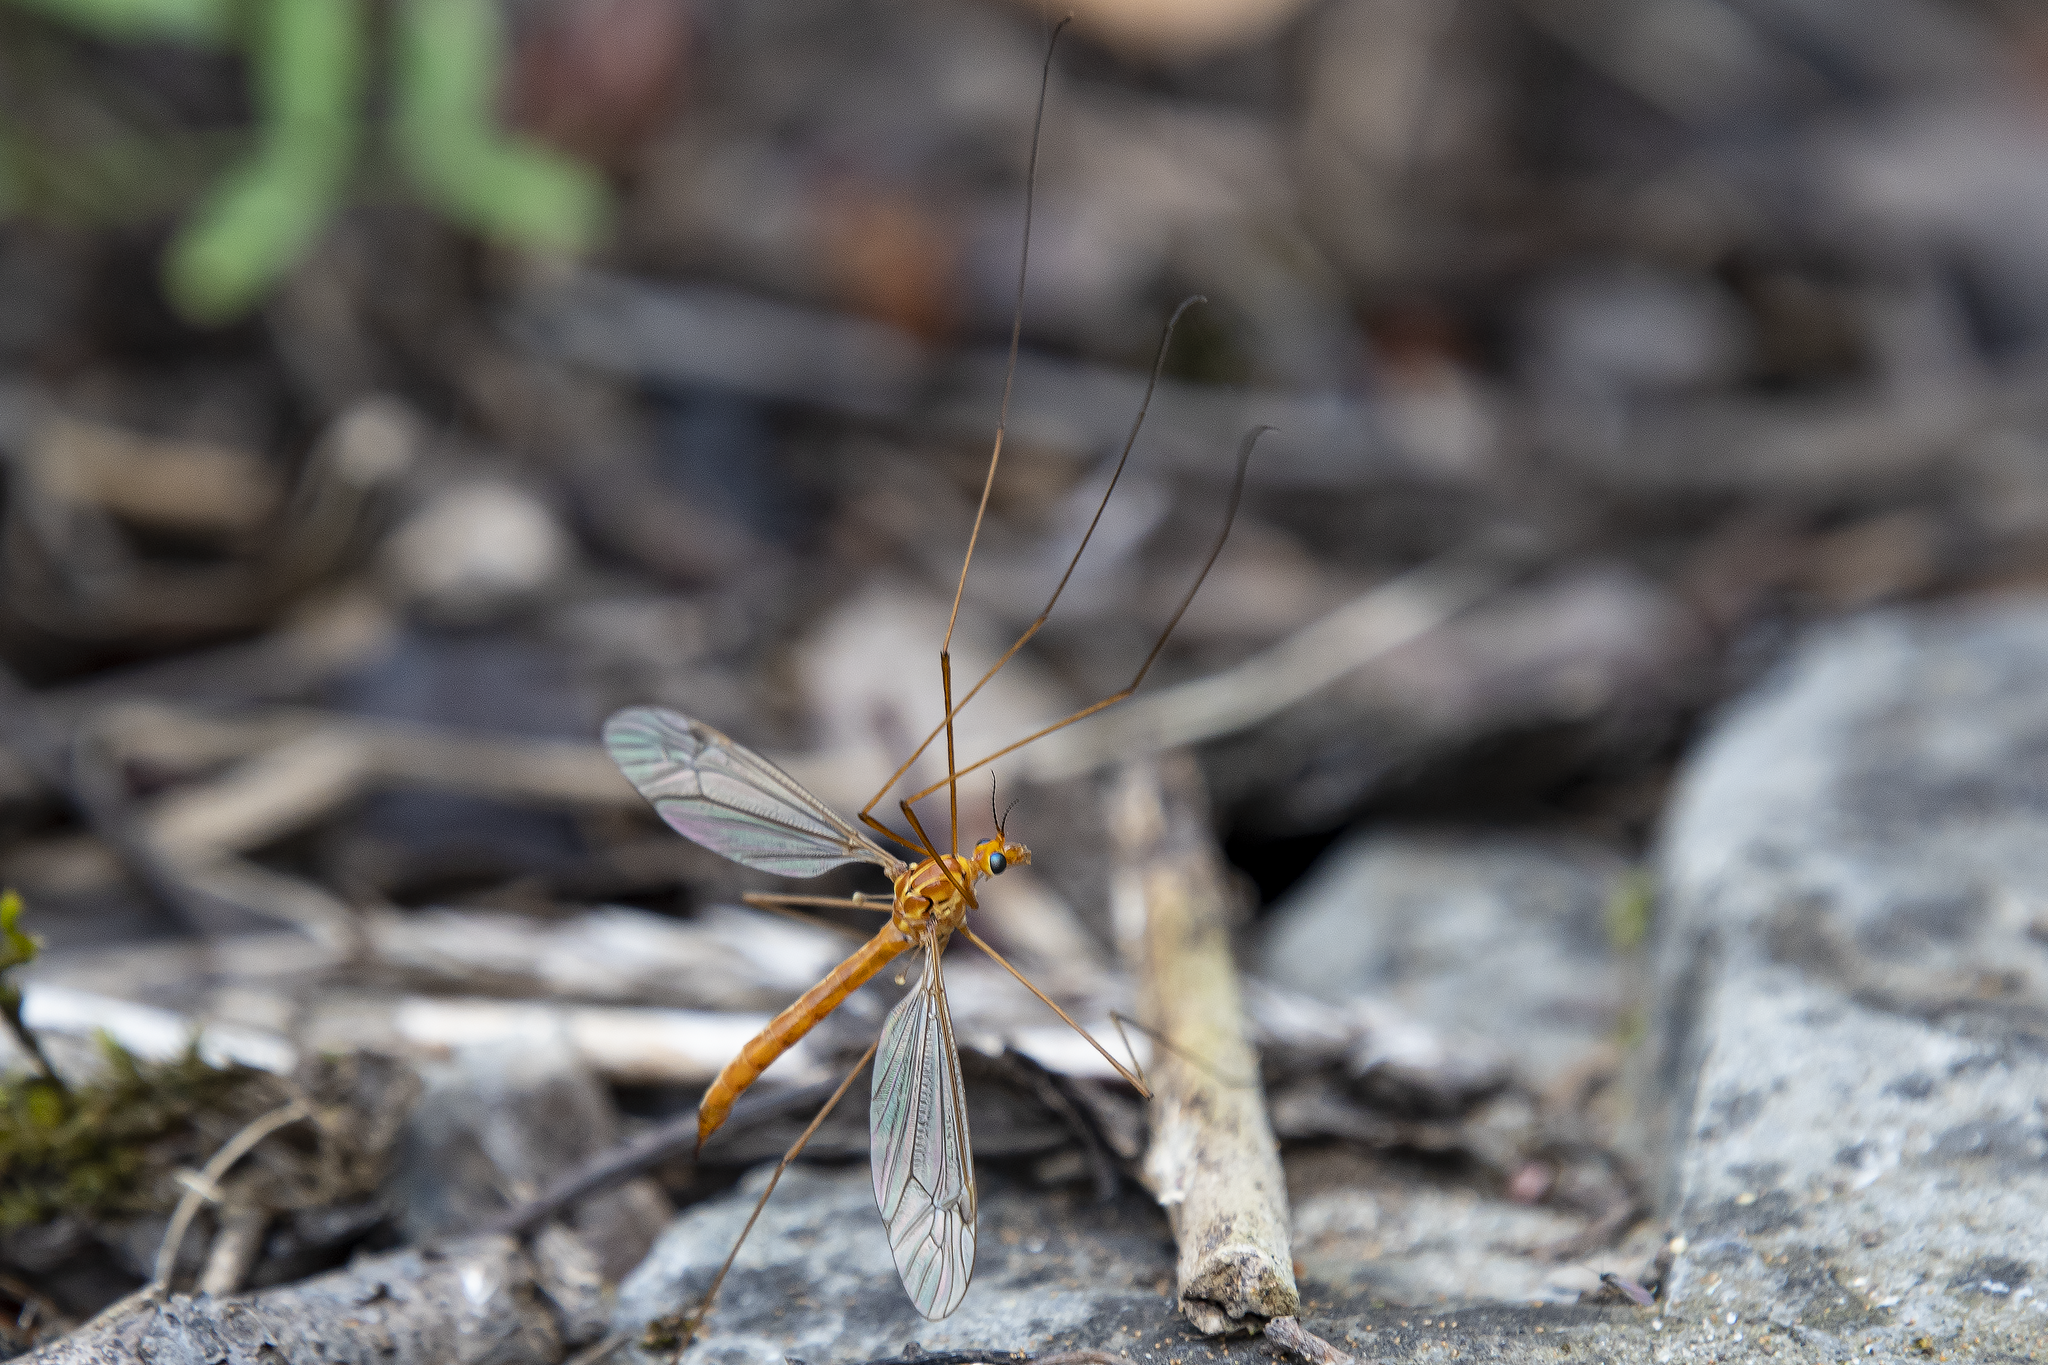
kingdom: Animalia
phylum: Arthropoda
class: Insecta
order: Diptera
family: Tipulidae
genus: Nephrotoma
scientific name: Nephrotoma
